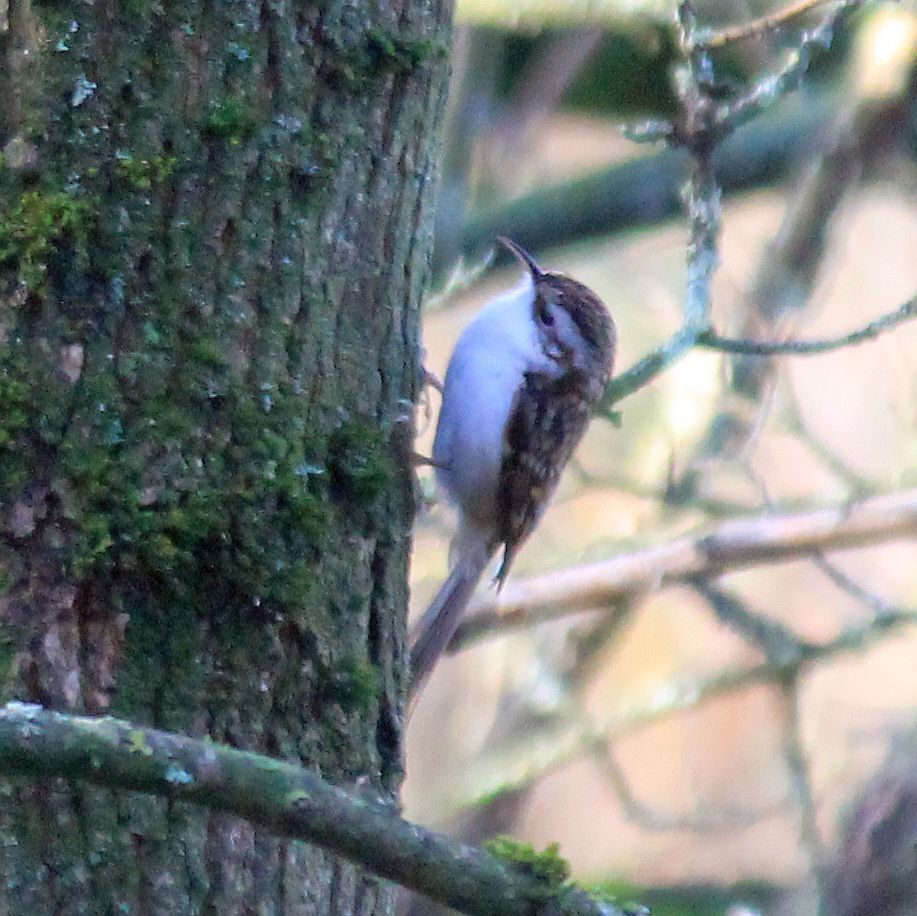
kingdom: Animalia
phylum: Chordata
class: Aves
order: Passeriformes
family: Certhiidae
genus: Certhia
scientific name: Certhia familiaris
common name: Eurasian treecreeper
